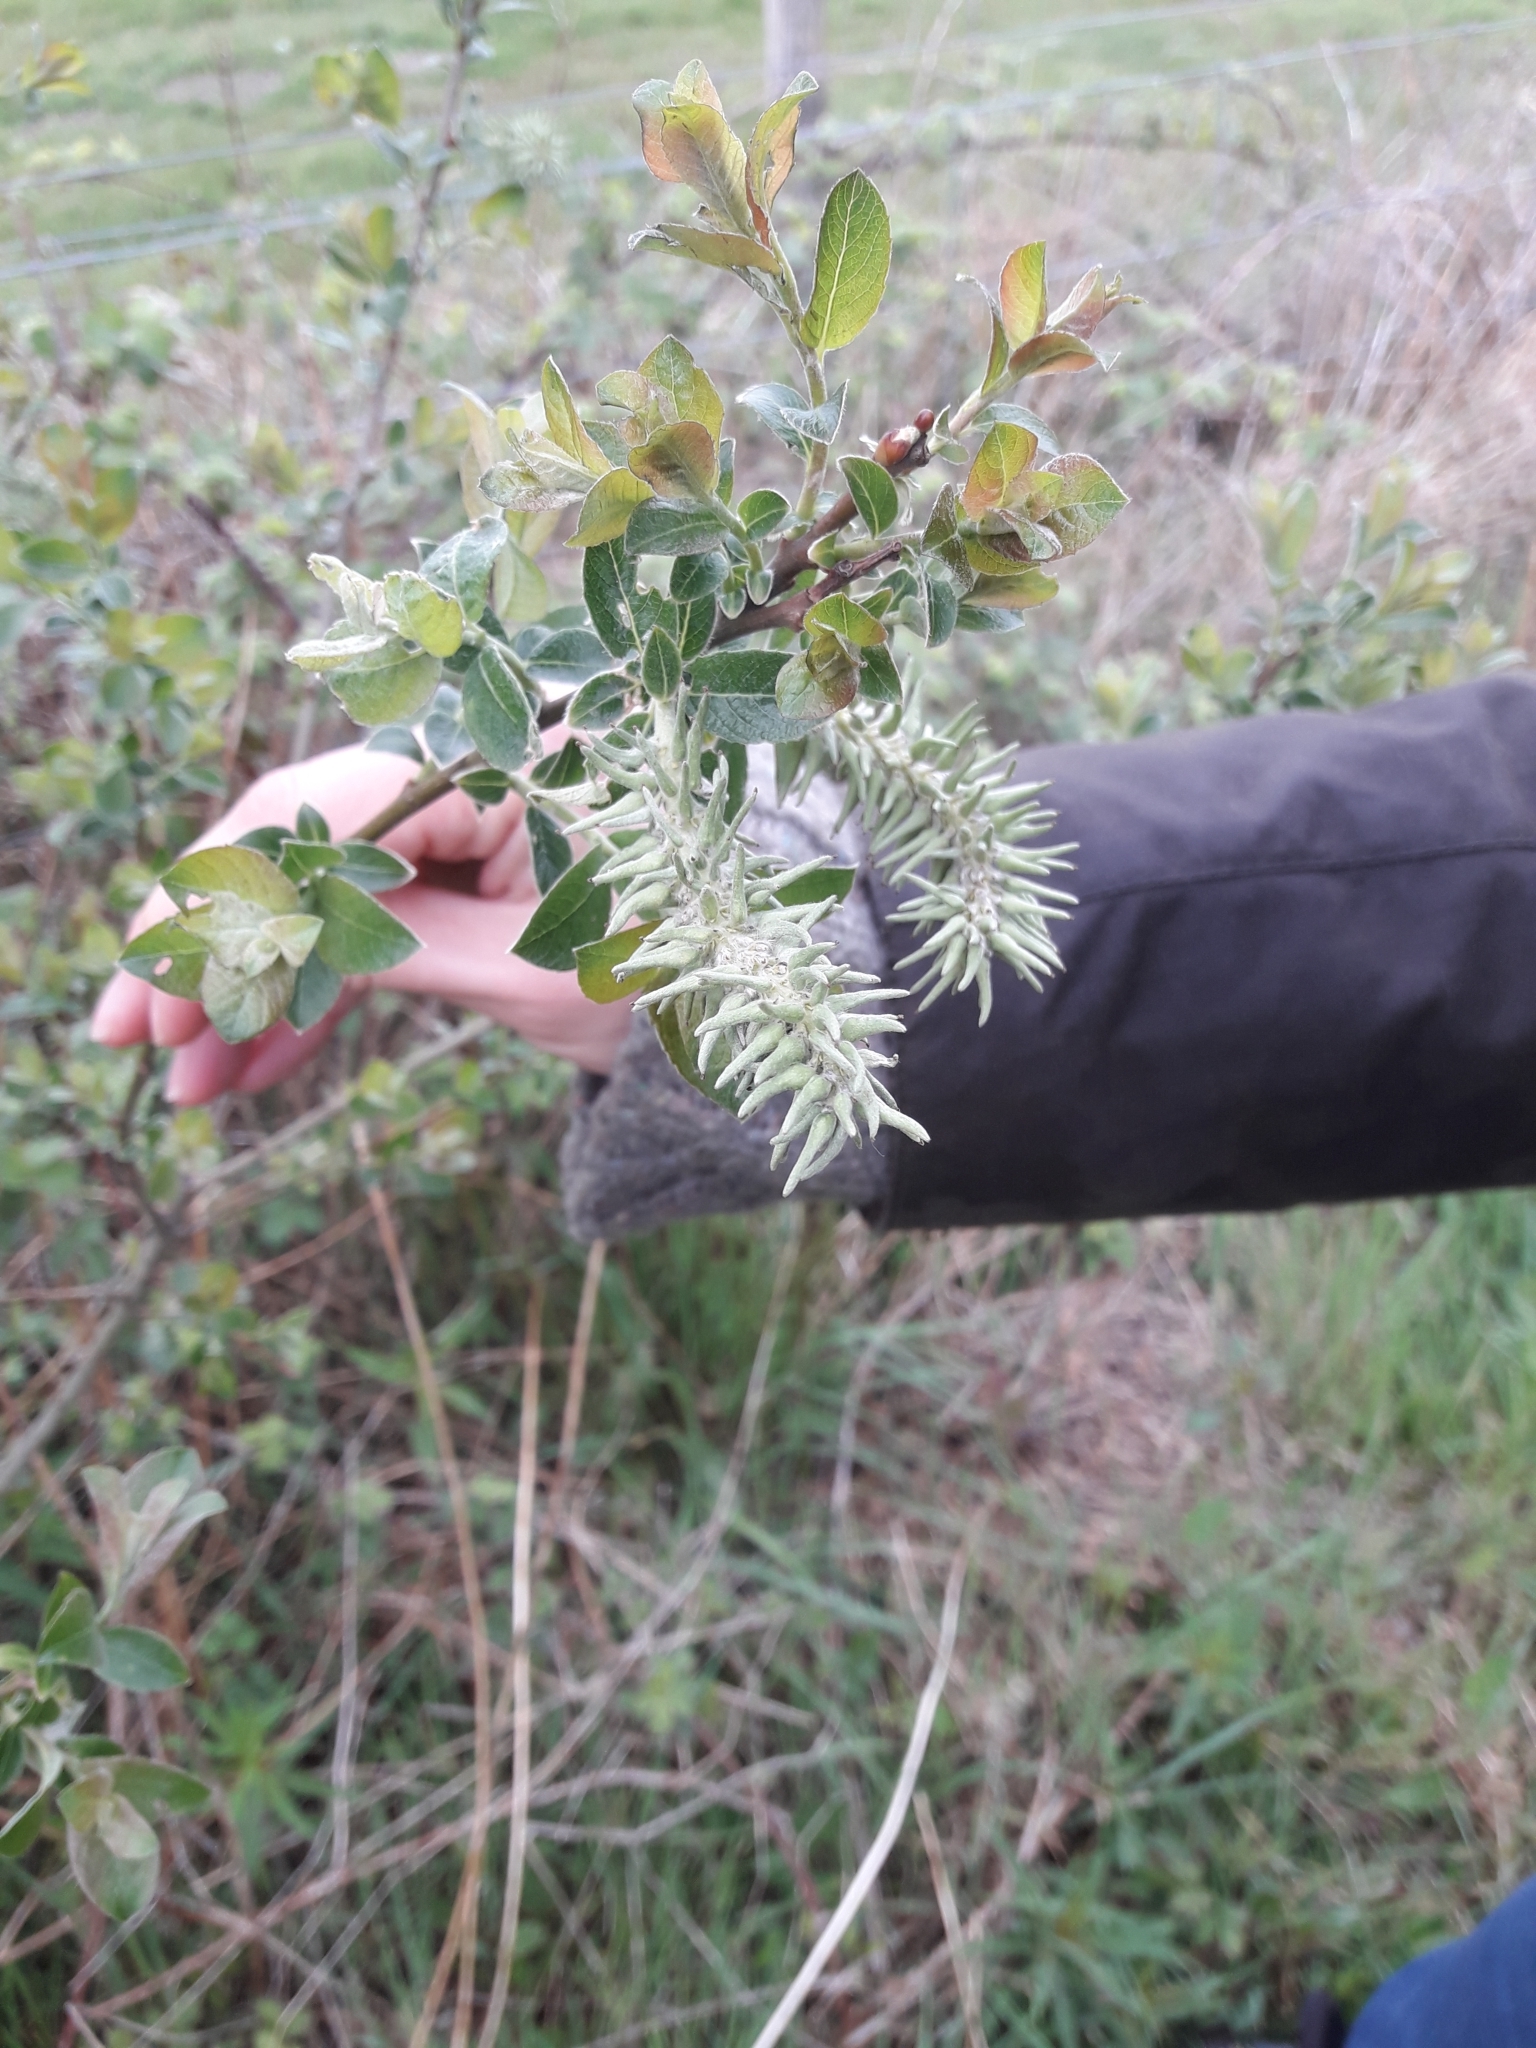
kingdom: Plantae
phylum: Tracheophyta
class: Magnoliopsida
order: Malpighiales
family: Salicaceae
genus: Salix
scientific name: Salix cinerea
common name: Common sallow
